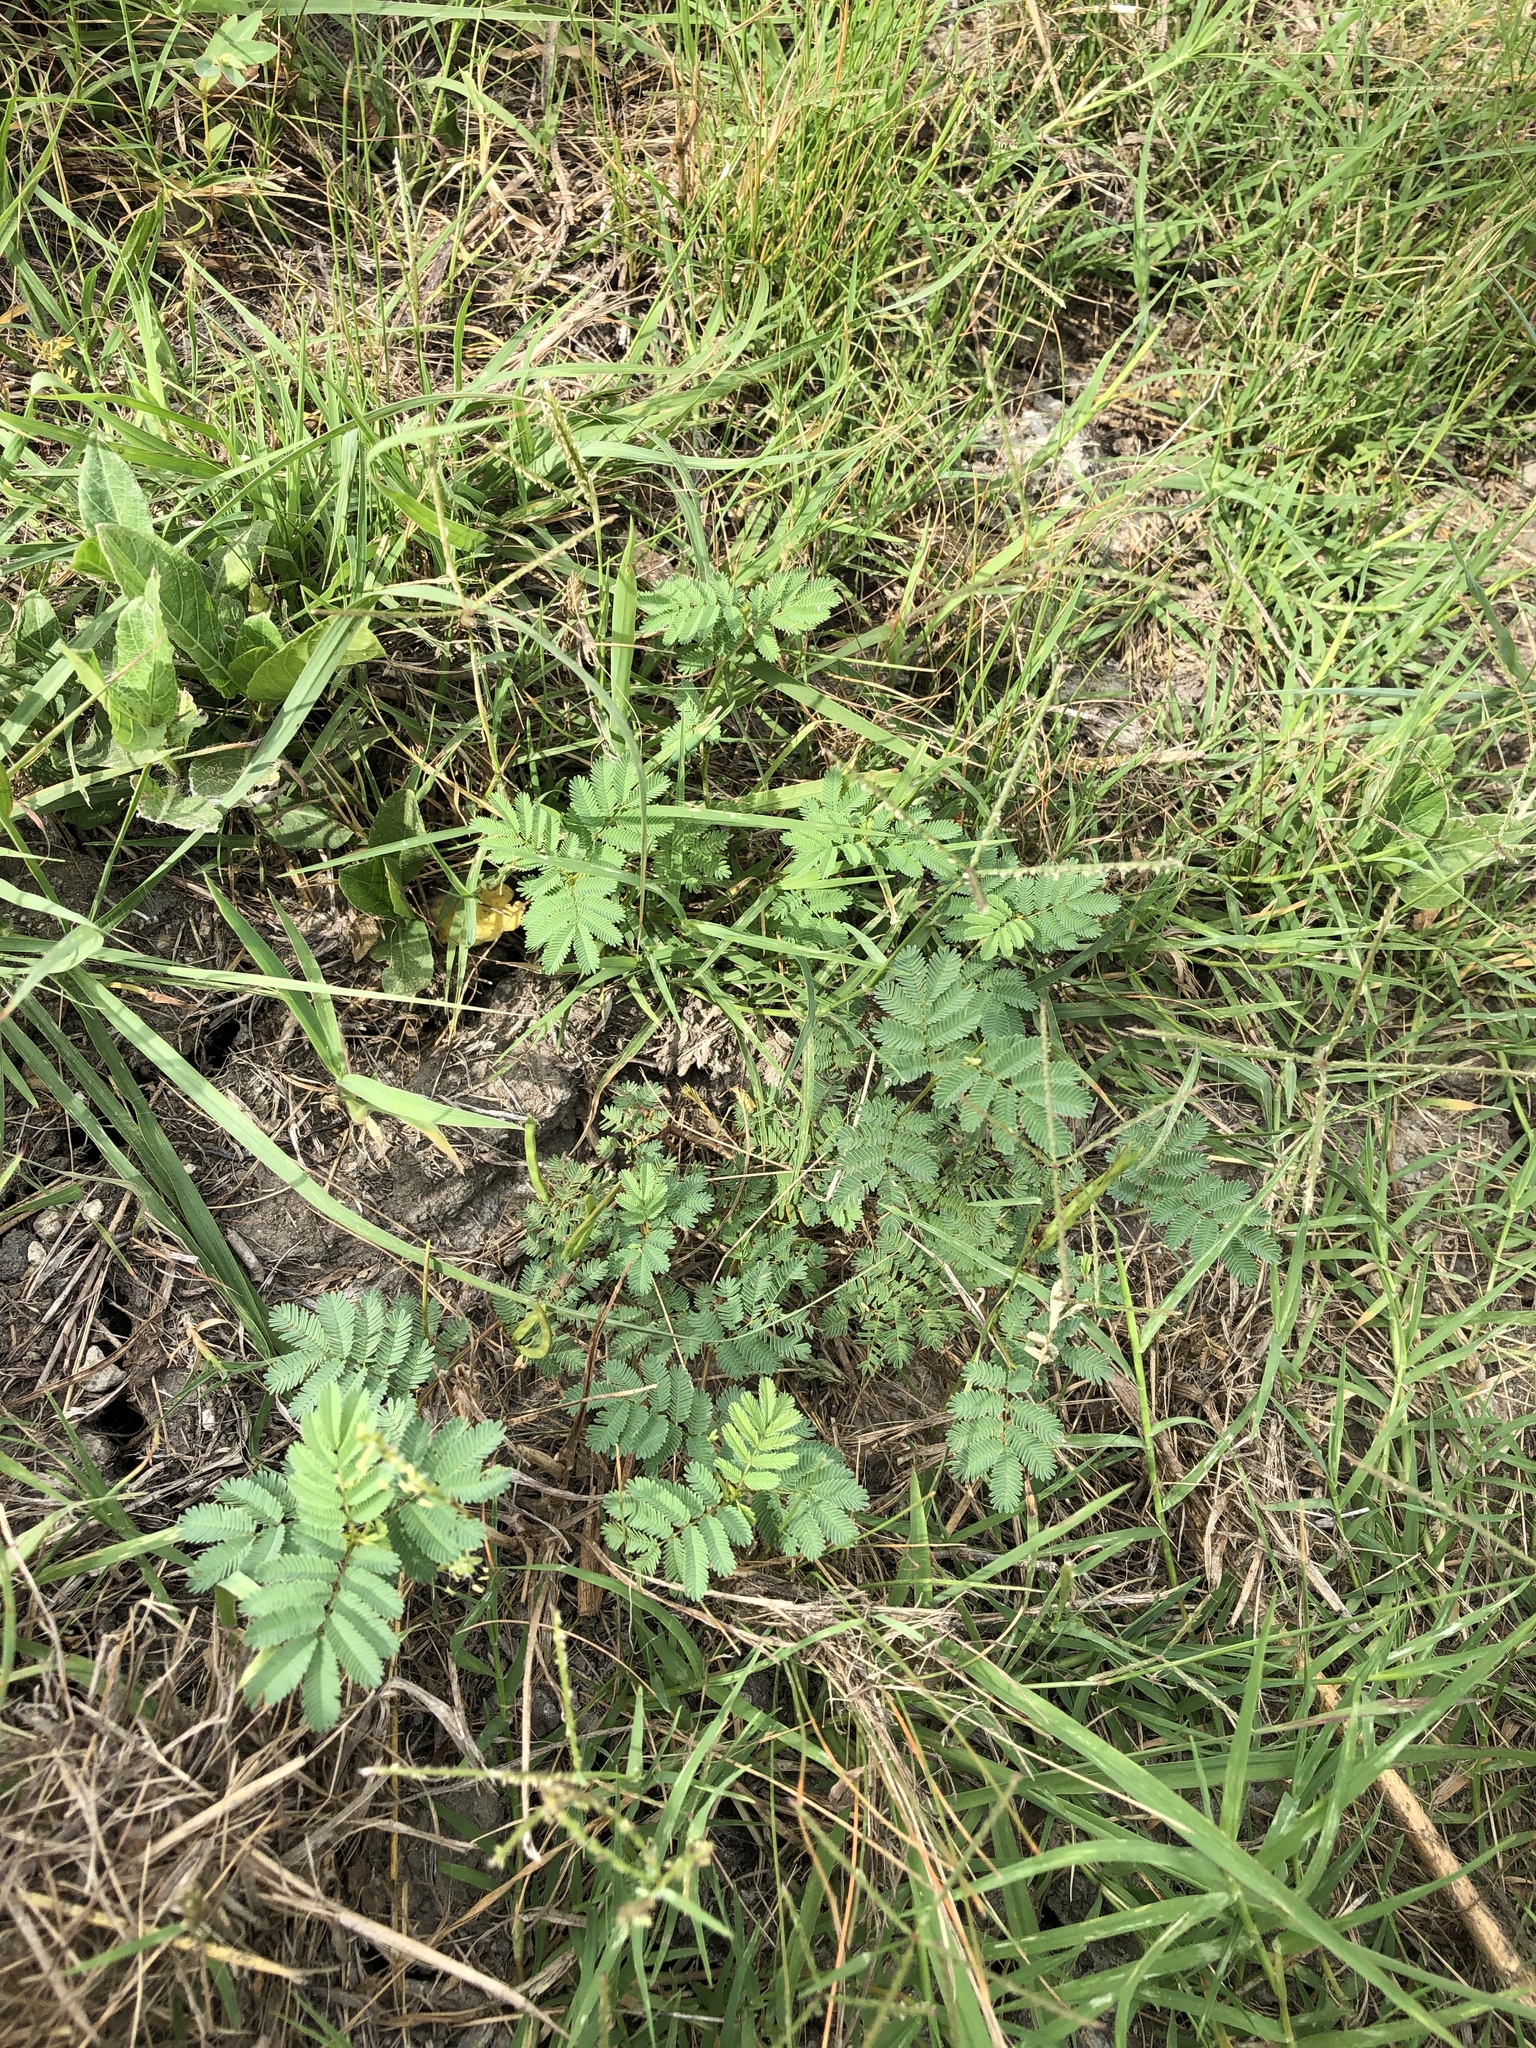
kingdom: Plantae
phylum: Tracheophyta
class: Magnoliopsida
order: Fabales
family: Fabaceae
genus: Desmanthus
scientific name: Desmanthus leptolobus
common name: Prairie-mimosa
